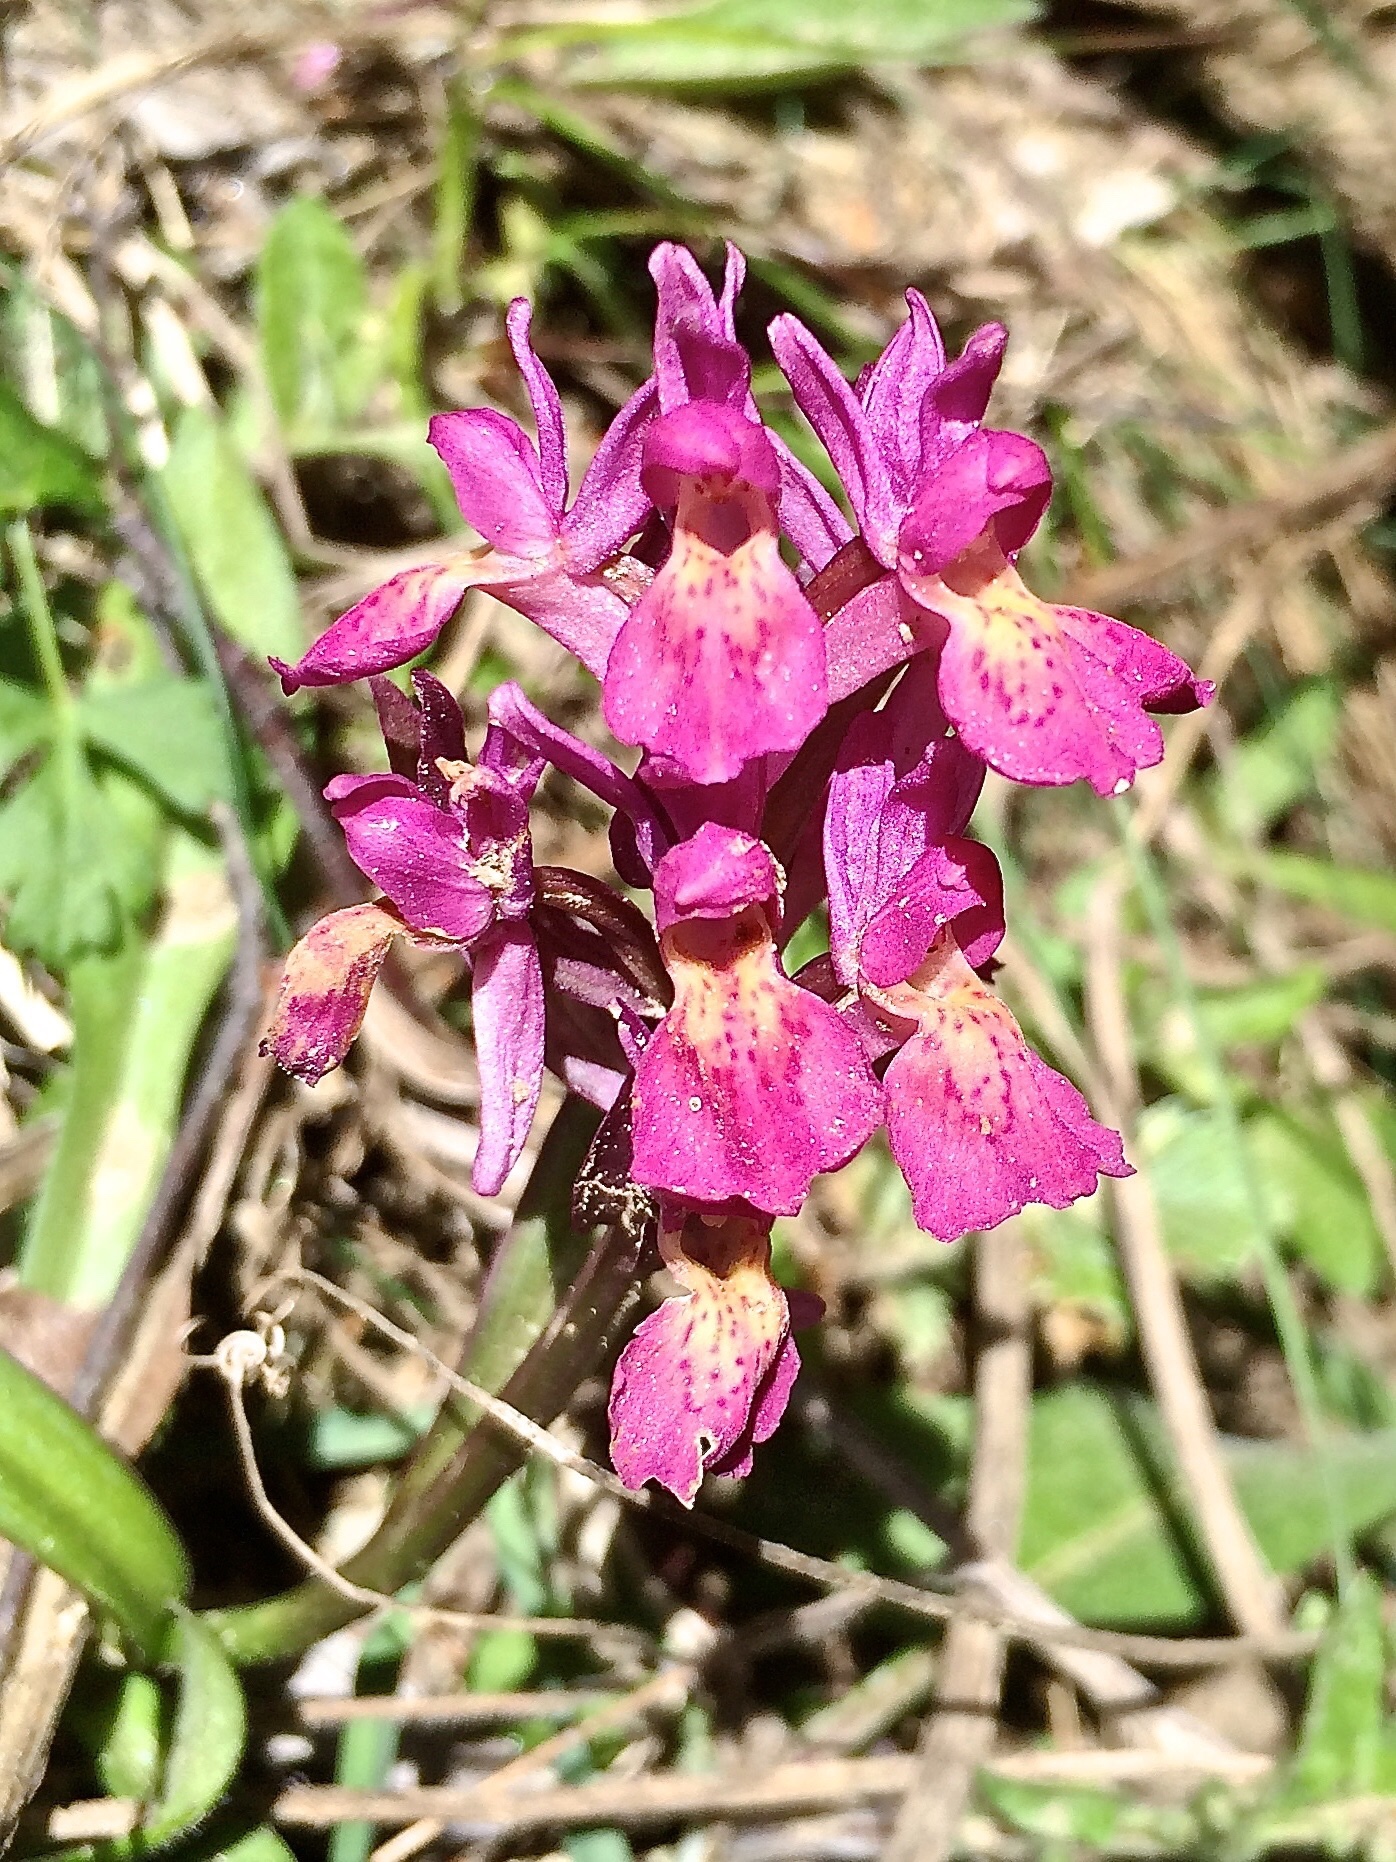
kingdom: Plantae
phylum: Tracheophyta
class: Liliopsida
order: Asparagales
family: Orchidaceae
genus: Dactylorhiza
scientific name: Dactylorhiza sambucina
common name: Elder-flowered orchid
